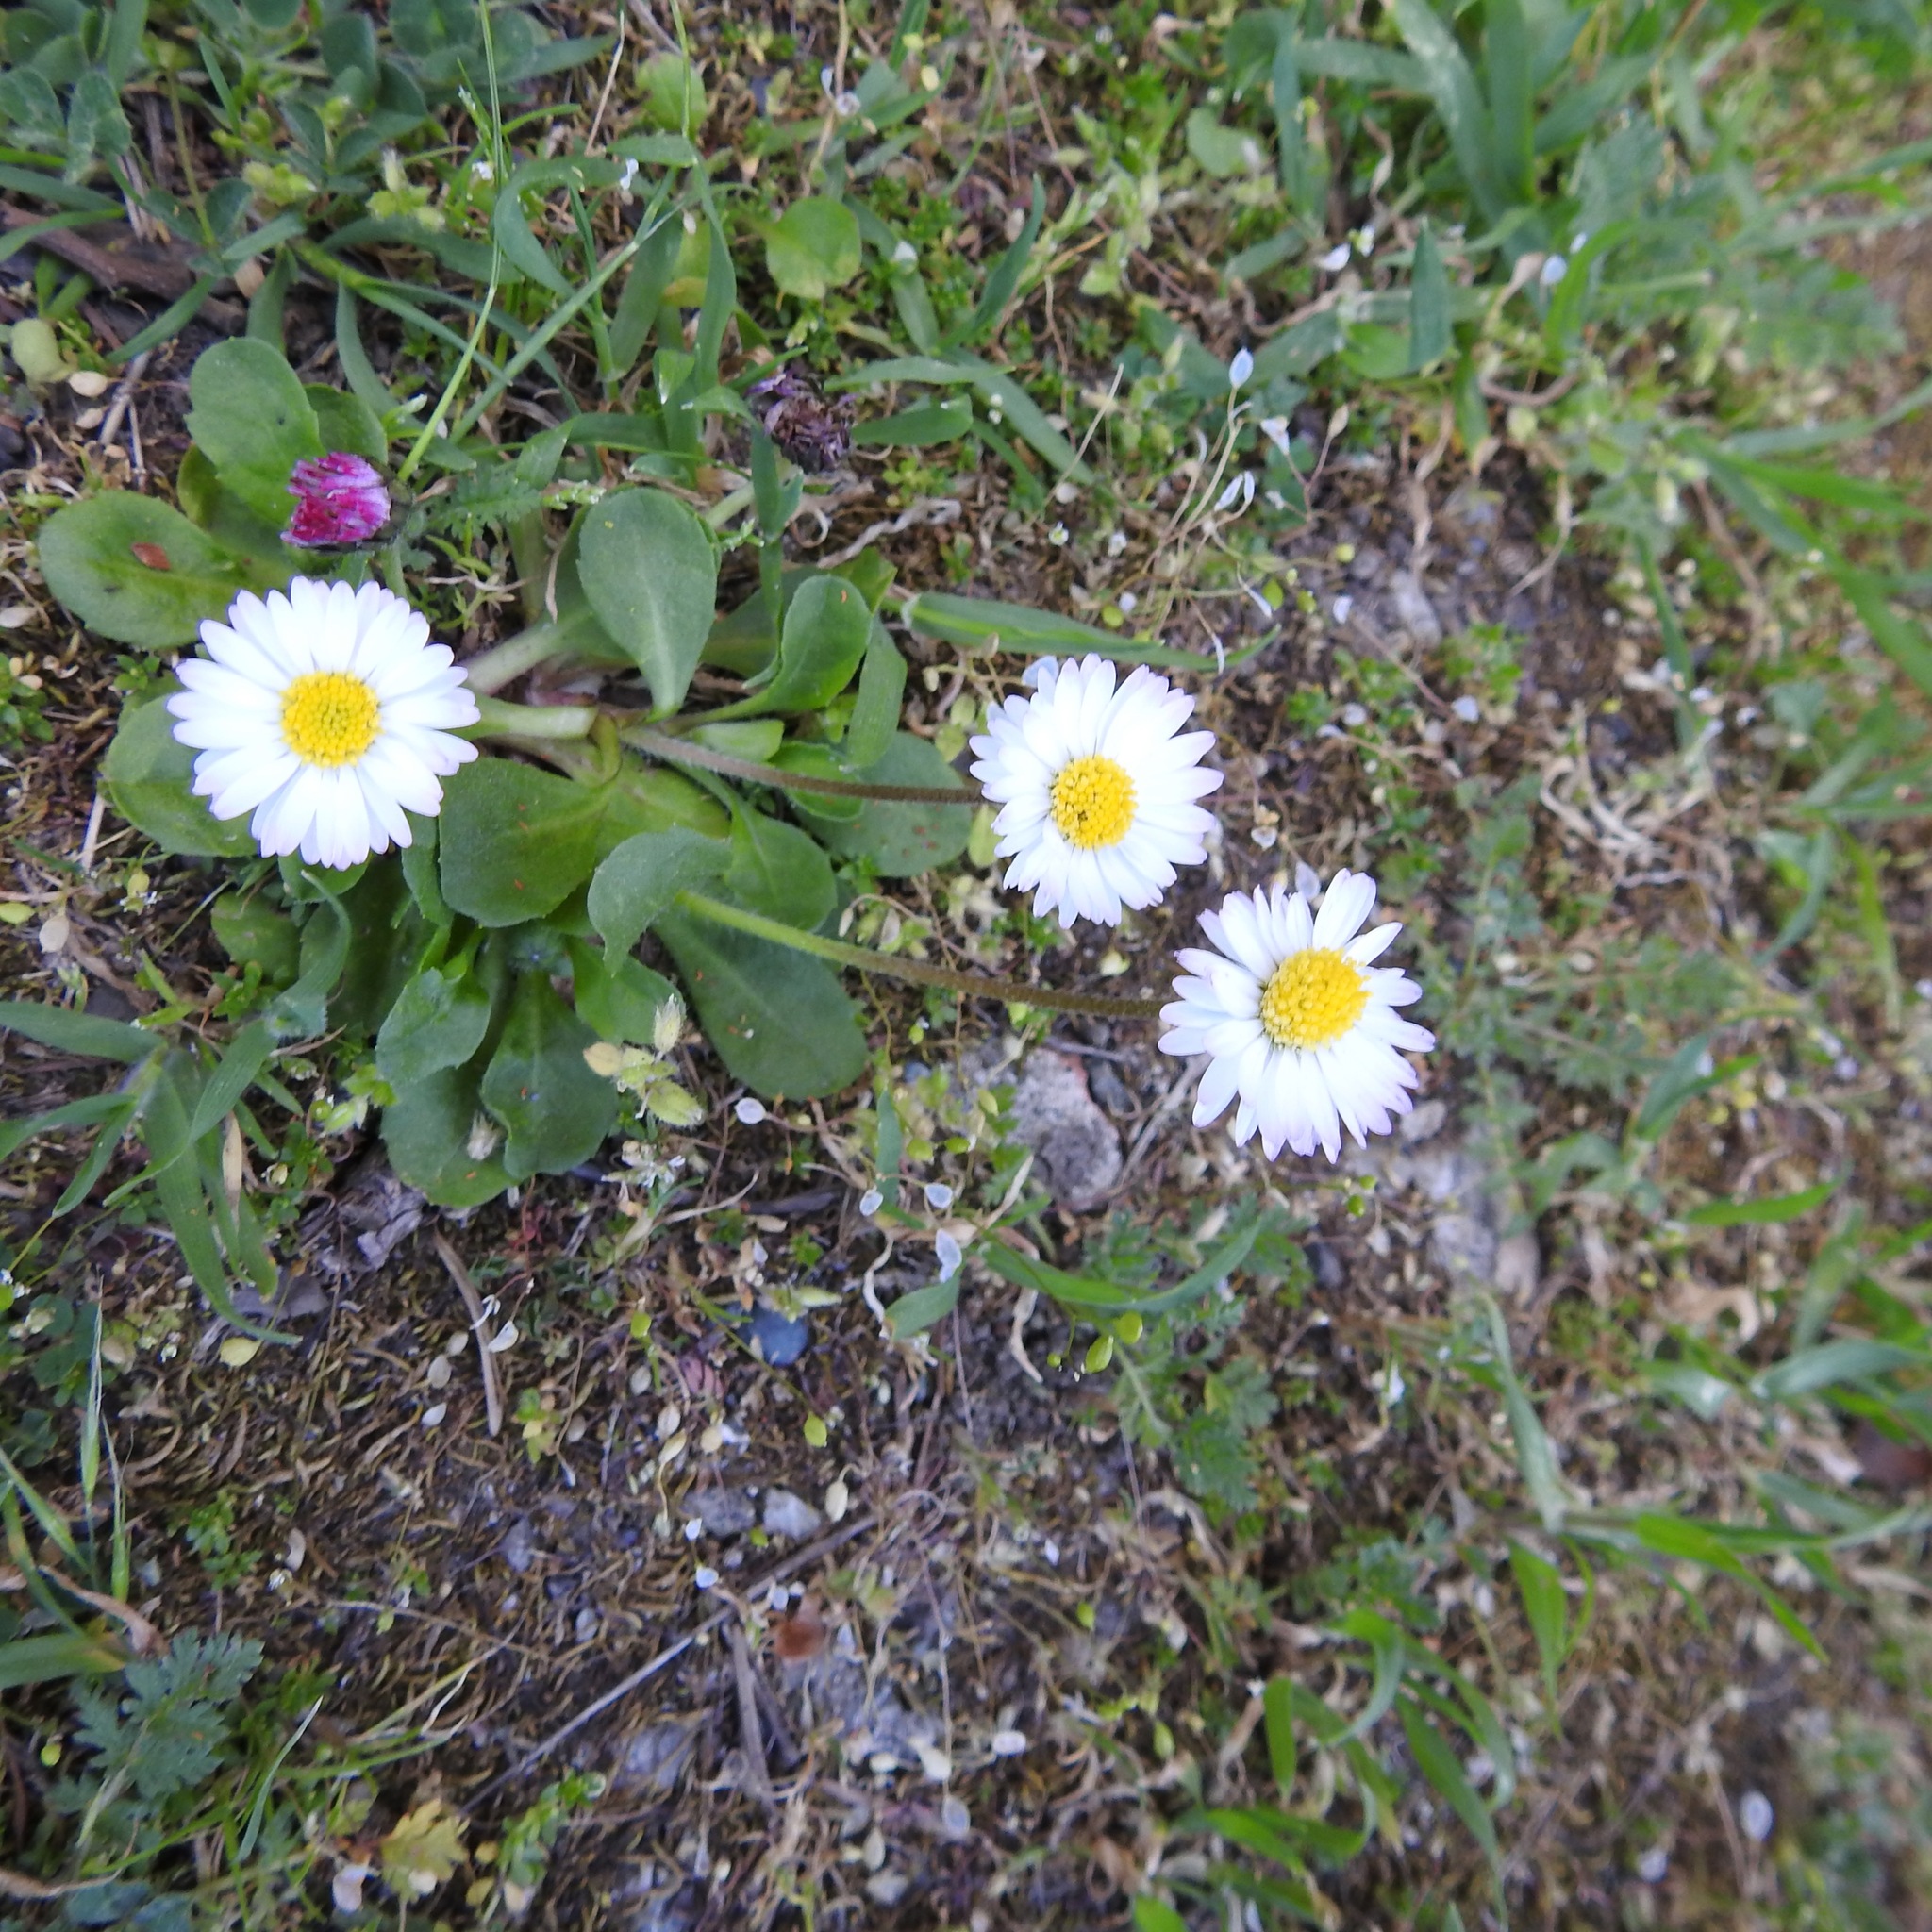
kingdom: Plantae
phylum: Tracheophyta
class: Magnoliopsida
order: Asterales
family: Asteraceae
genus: Bellis
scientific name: Bellis perennis
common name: Lawndaisy
